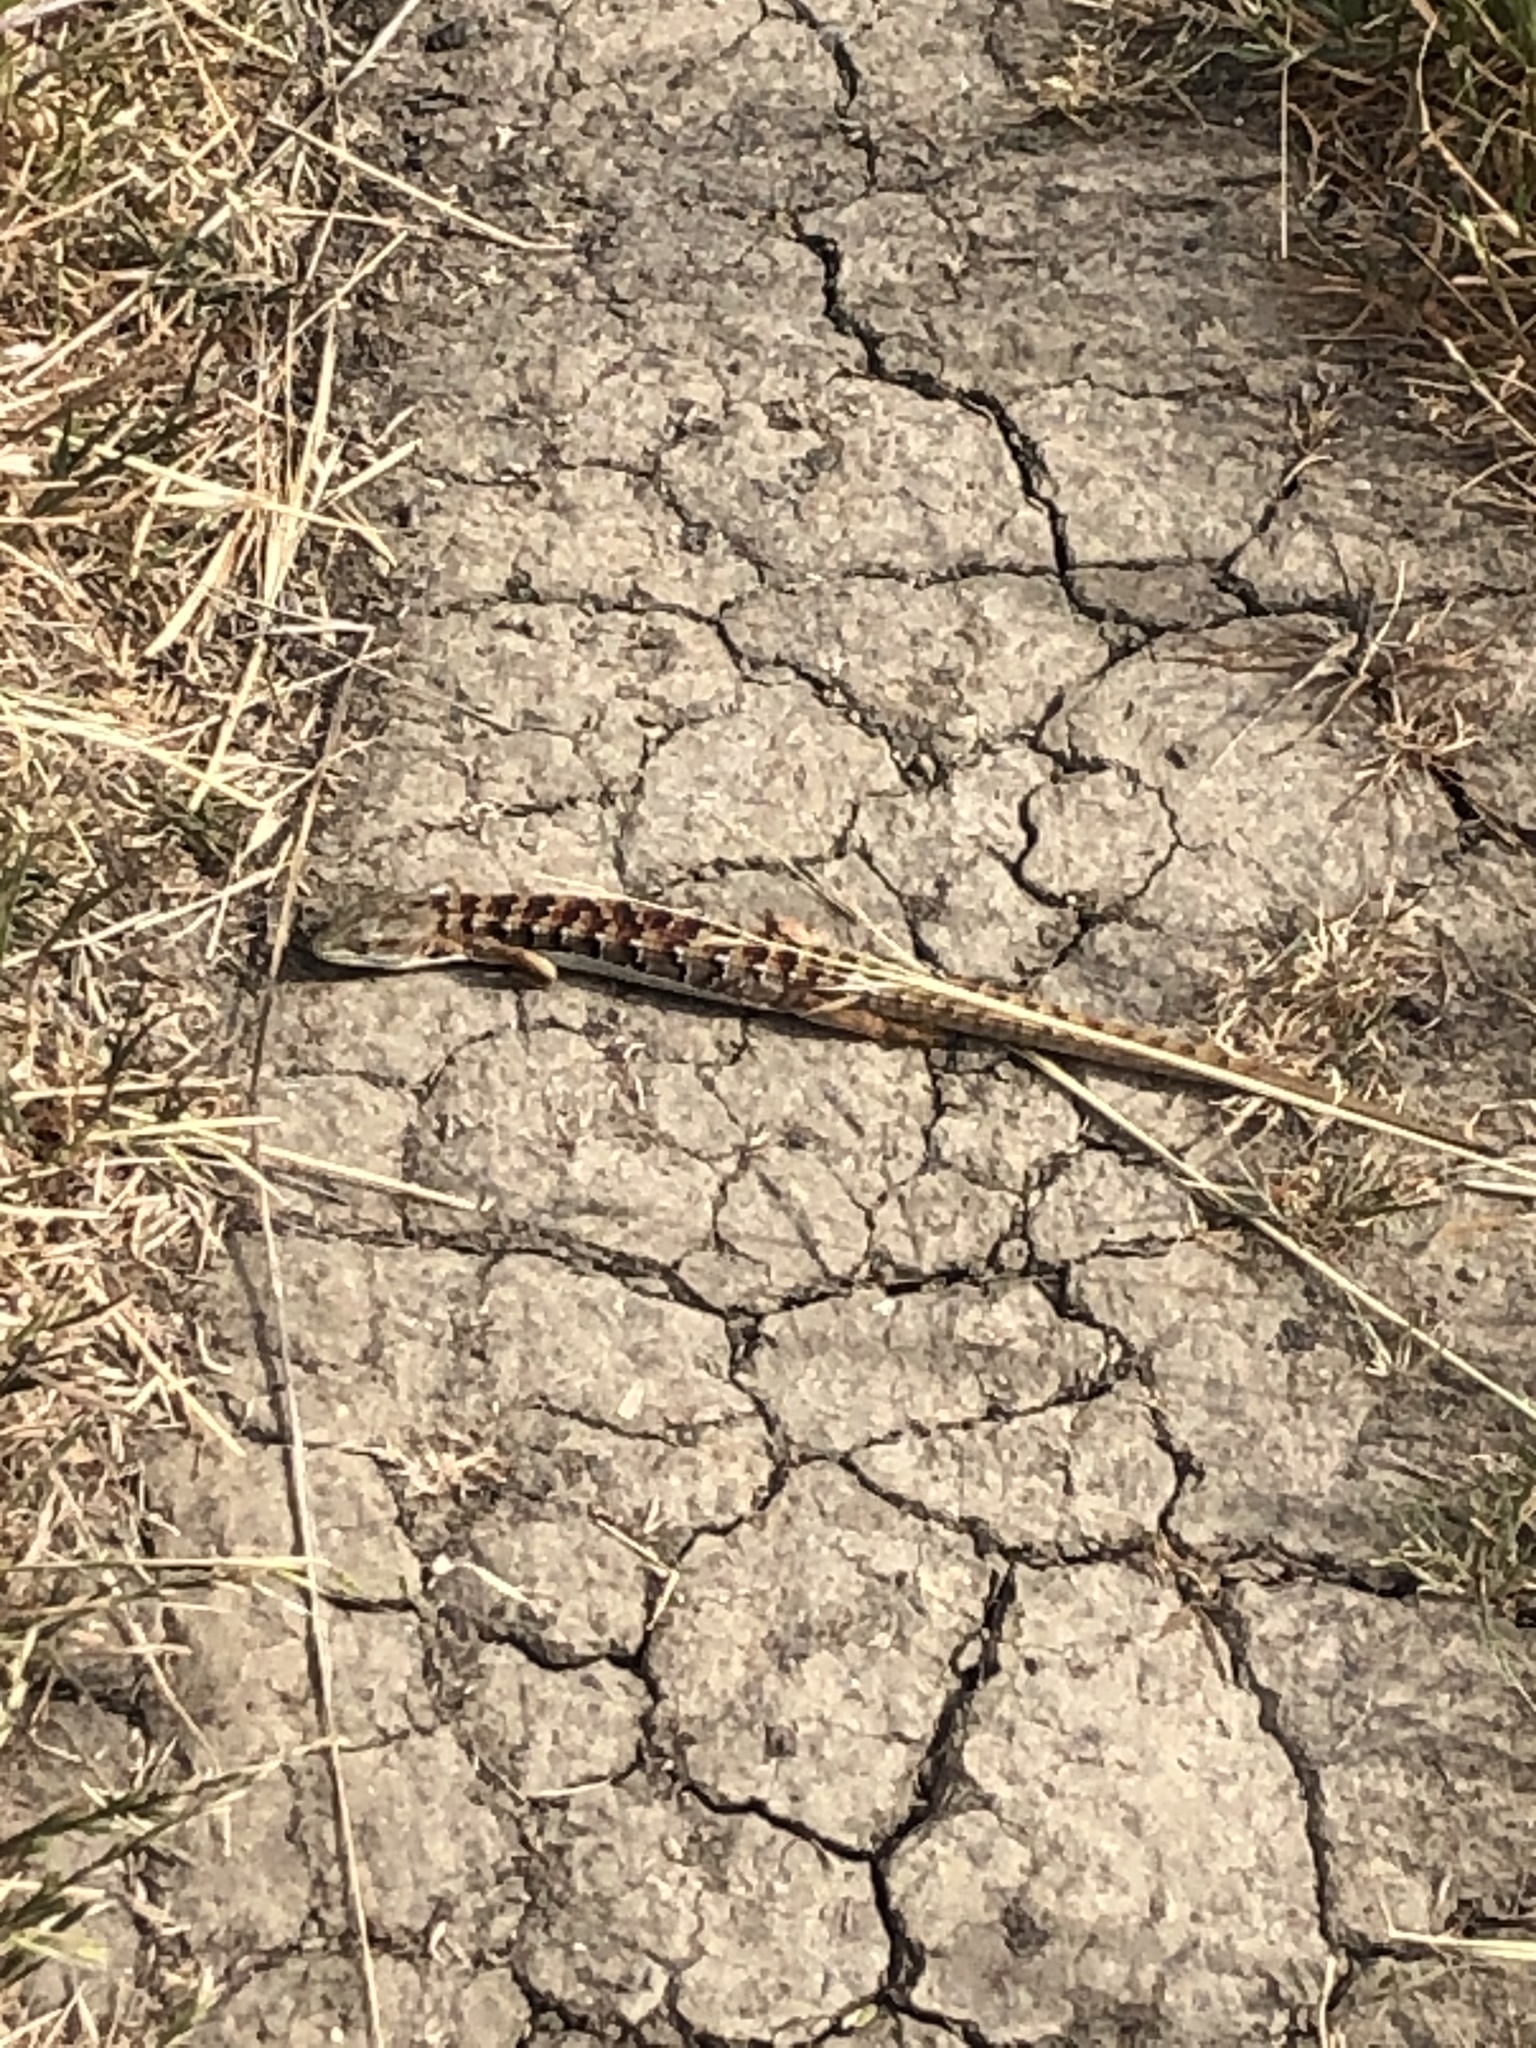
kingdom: Animalia
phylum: Chordata
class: Squamata
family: Anguidae
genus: Elgaria
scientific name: Elgaria multicarinata
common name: Southern alligator lizard
